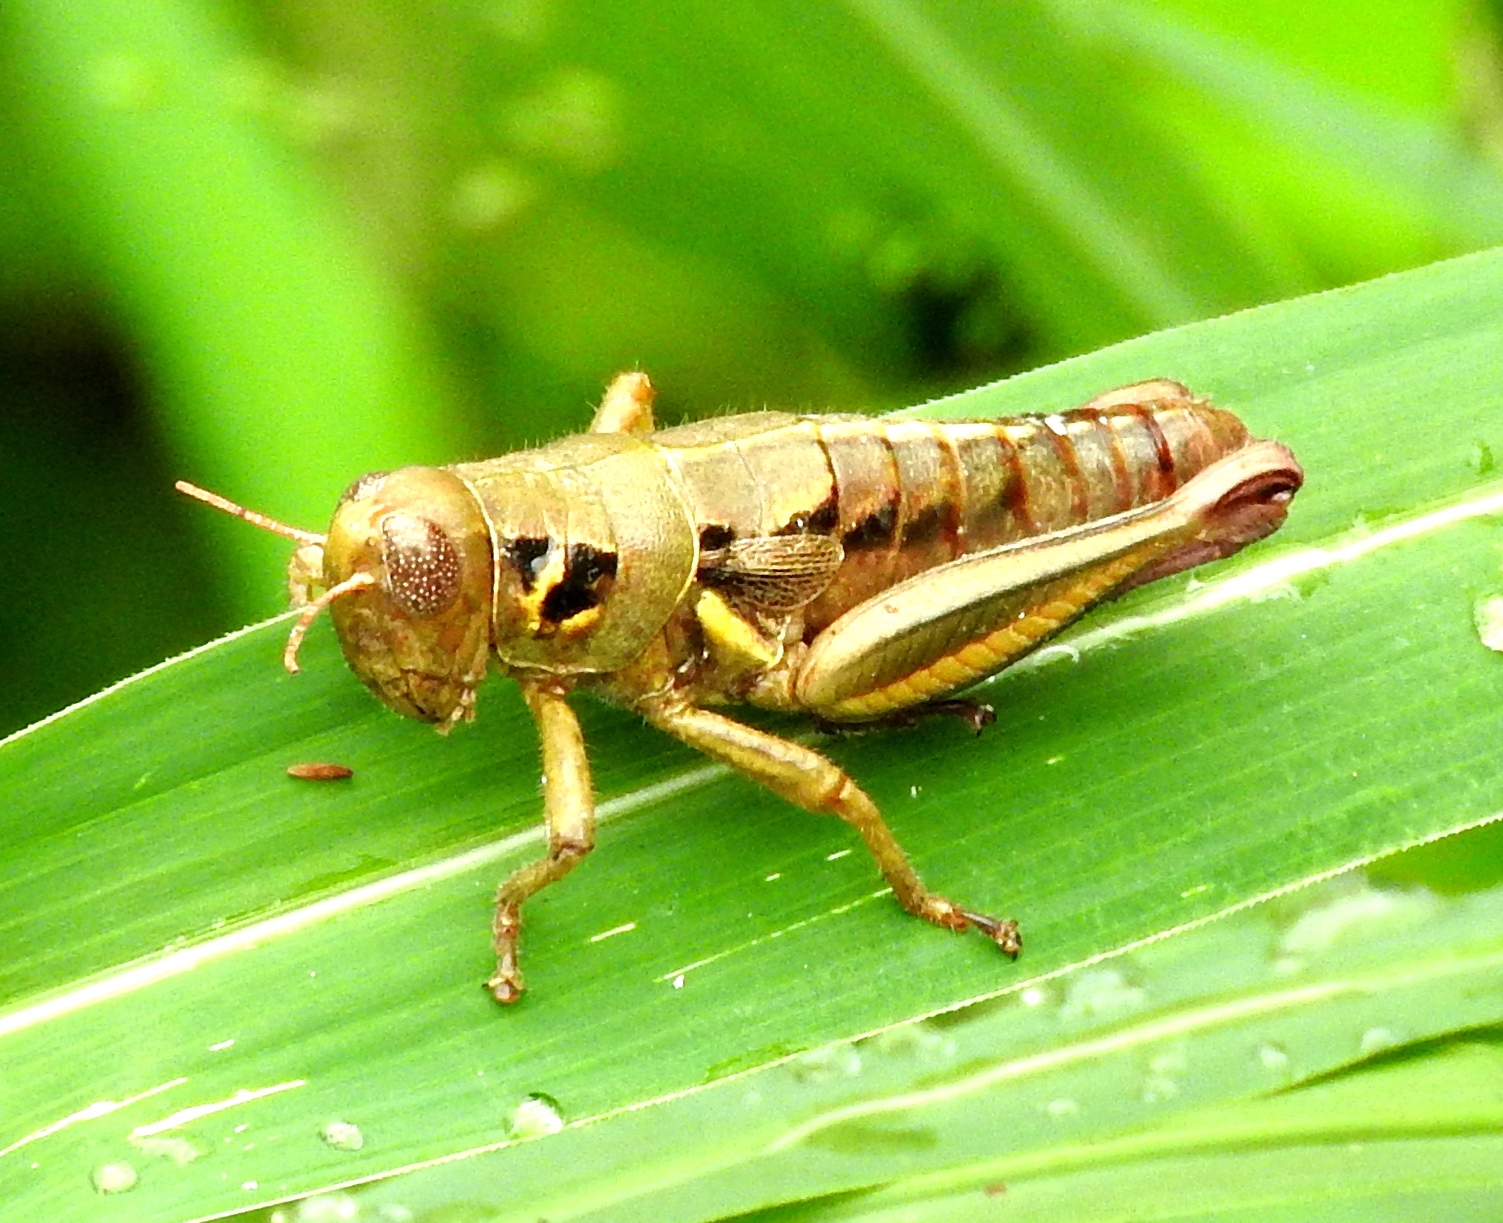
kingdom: Animalia
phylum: Arthropoda
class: Insecta
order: Orthoptera
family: Acrididae
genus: Barytettix
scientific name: Barytettix
